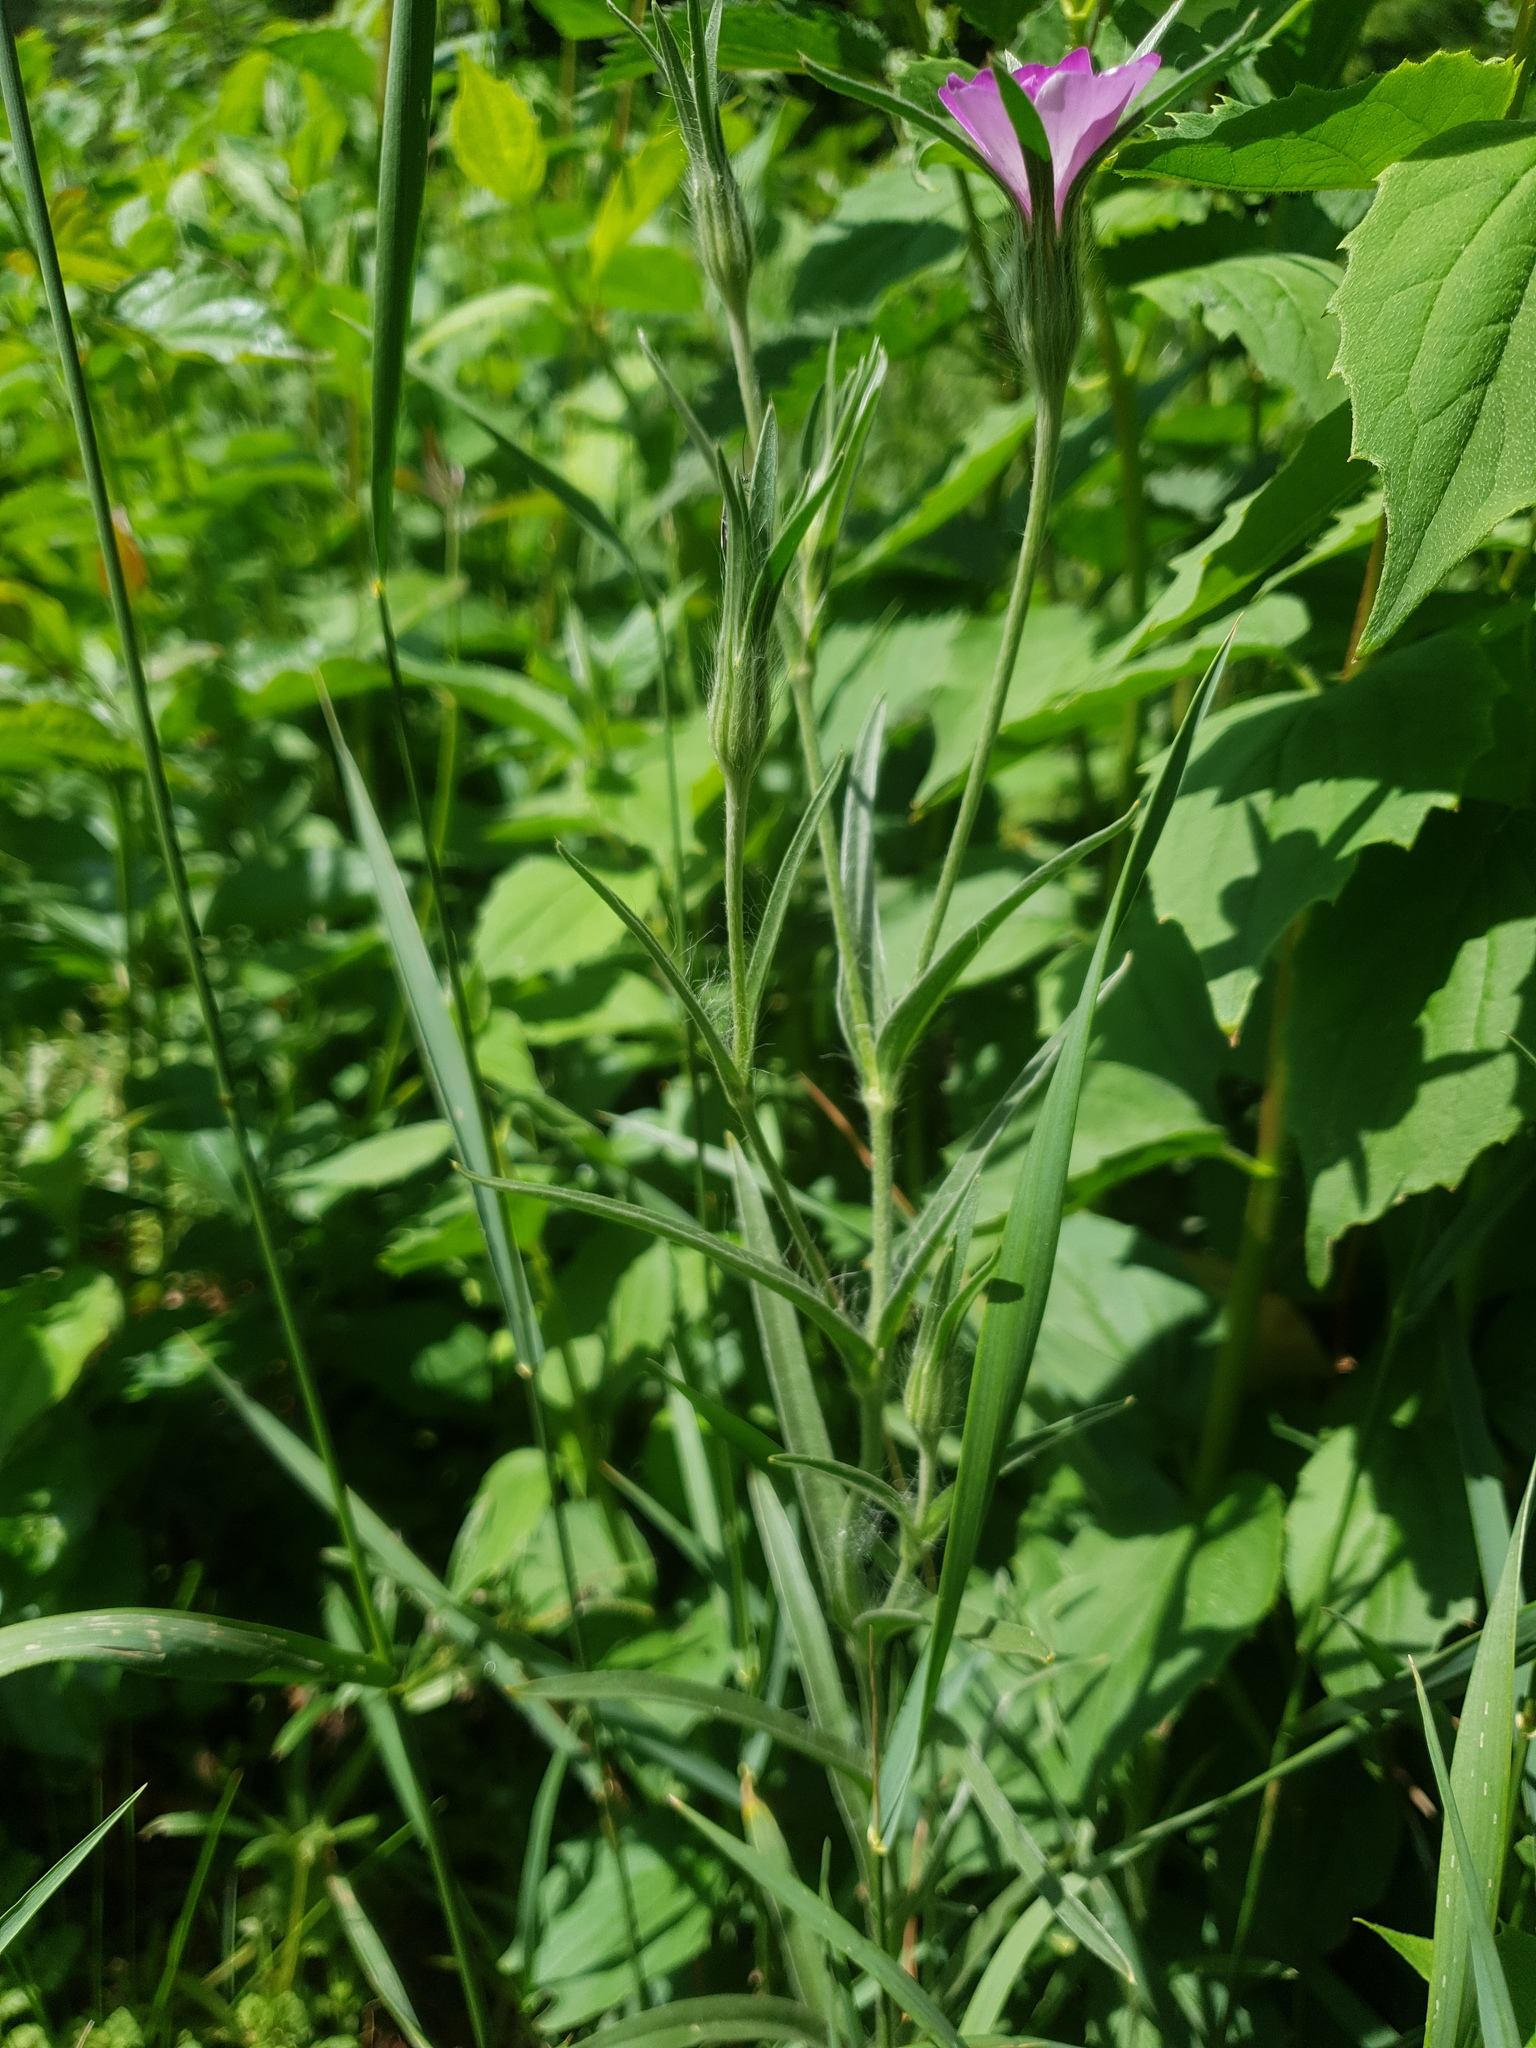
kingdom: Plantae
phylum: Tracheophyta
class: Magnoliopsida
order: Caryophyllales
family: Caryophyllaceae
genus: Agrostemma
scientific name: Agrostemma githago
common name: Common corncockle
